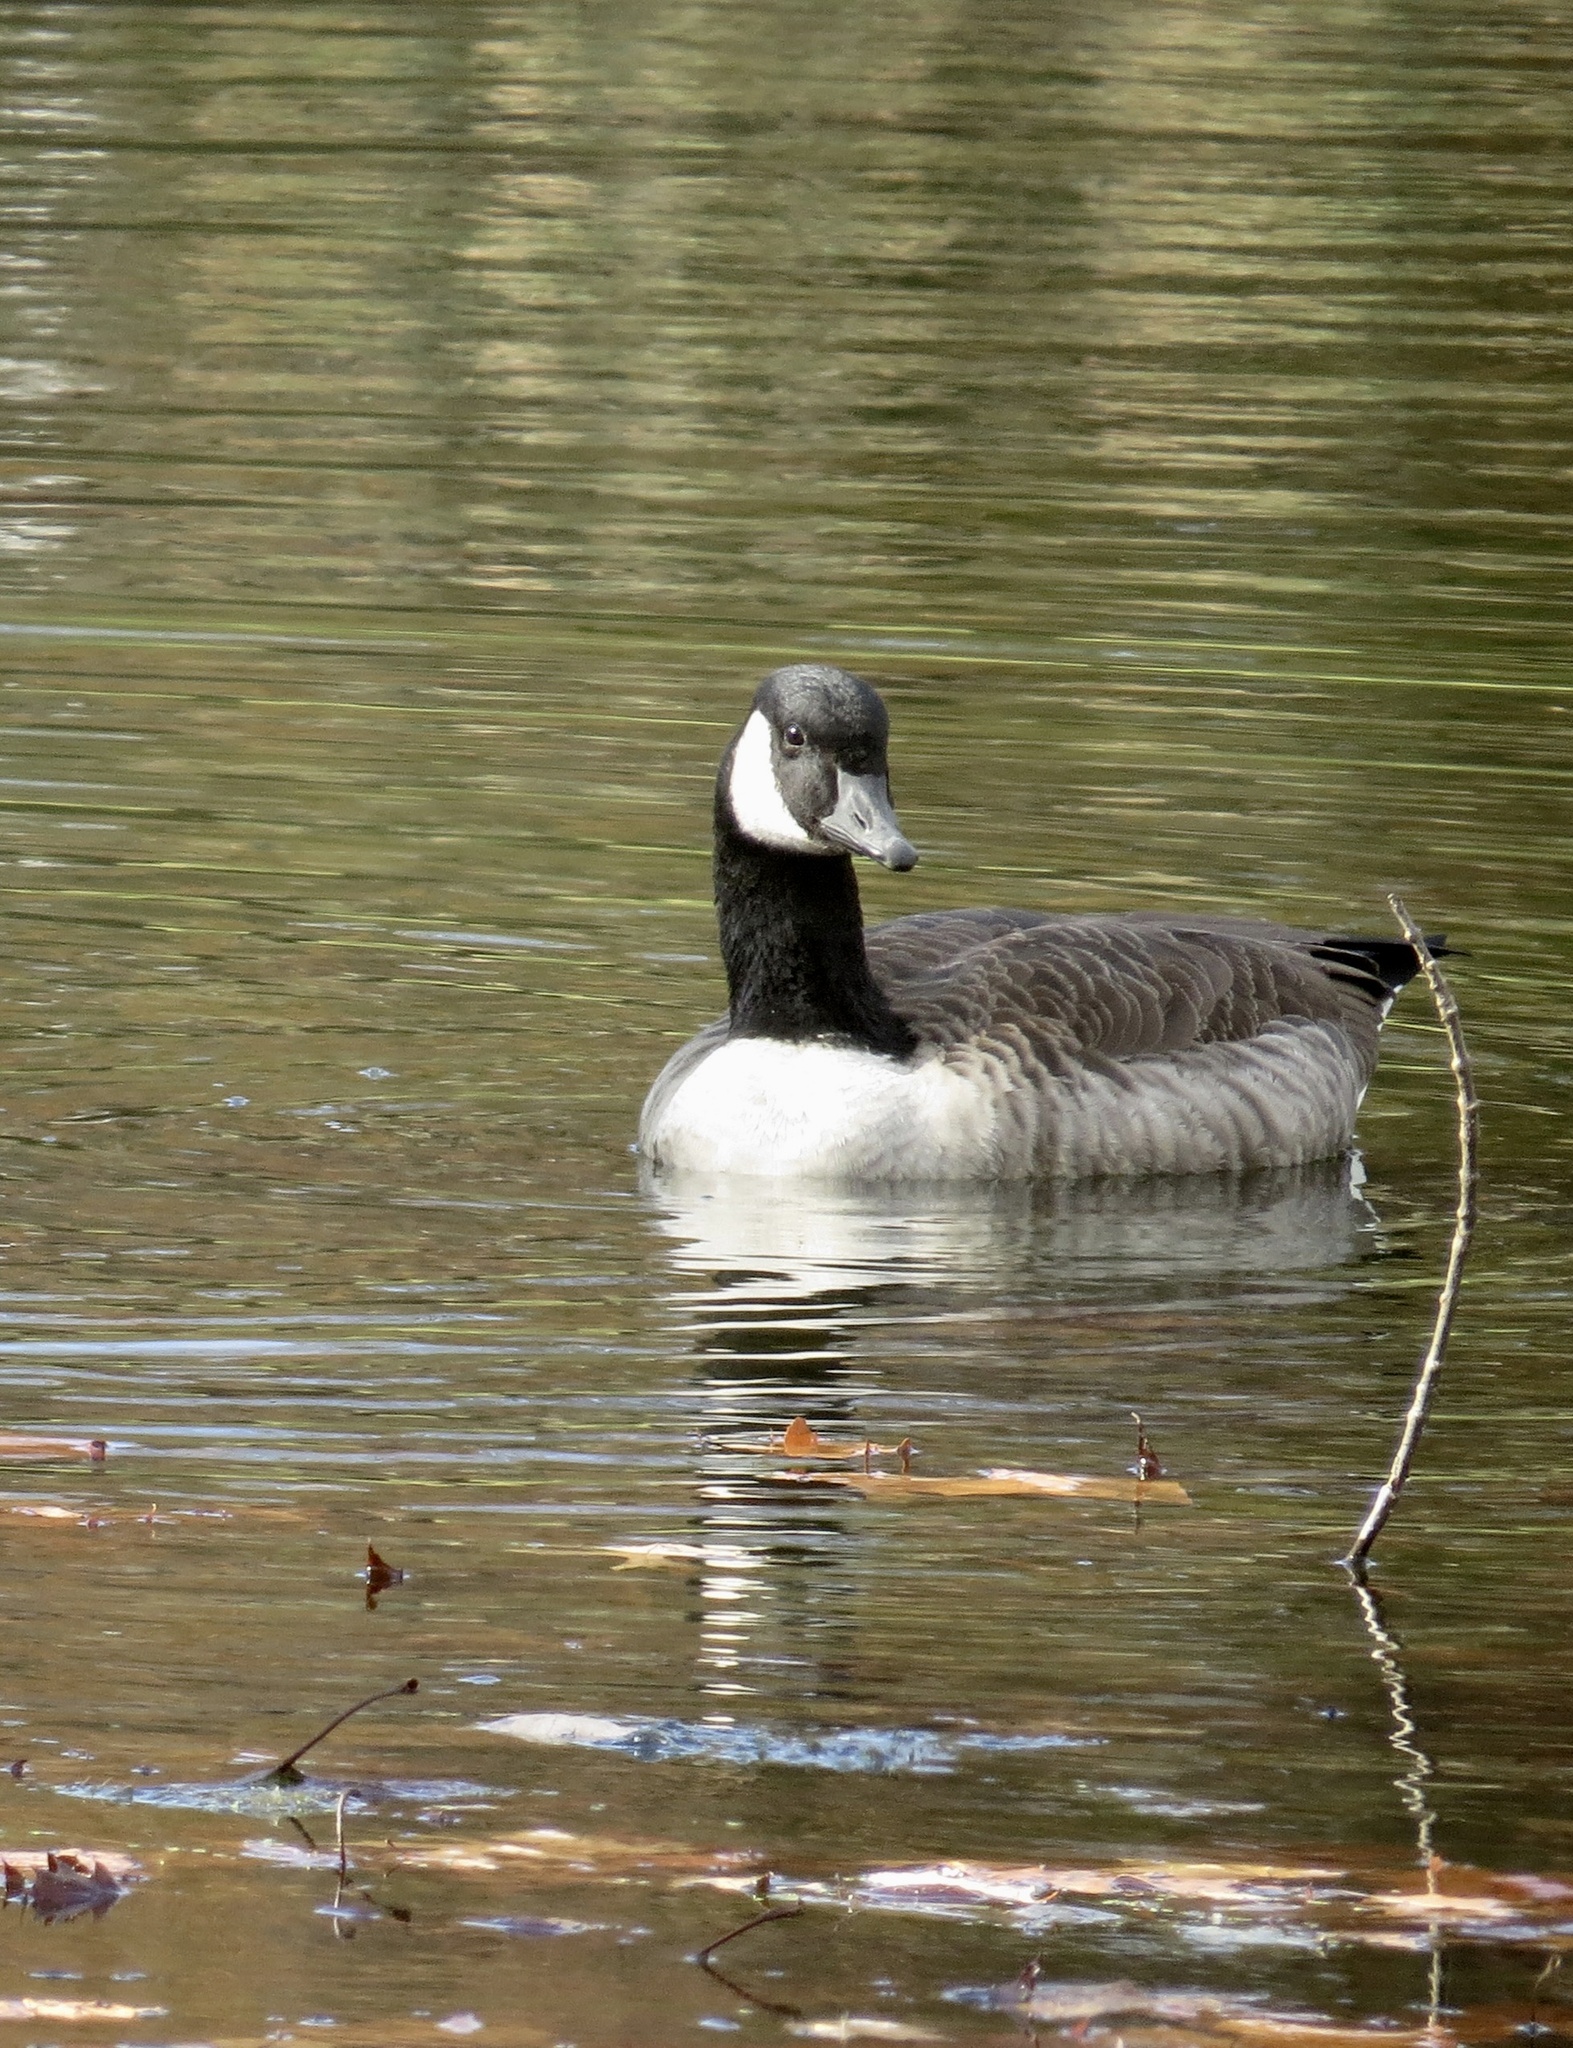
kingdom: Animalia
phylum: Chordata
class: Aves
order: Anseriformes
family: Anatidae
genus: Branta
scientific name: Branta canadensis
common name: Canada goose
